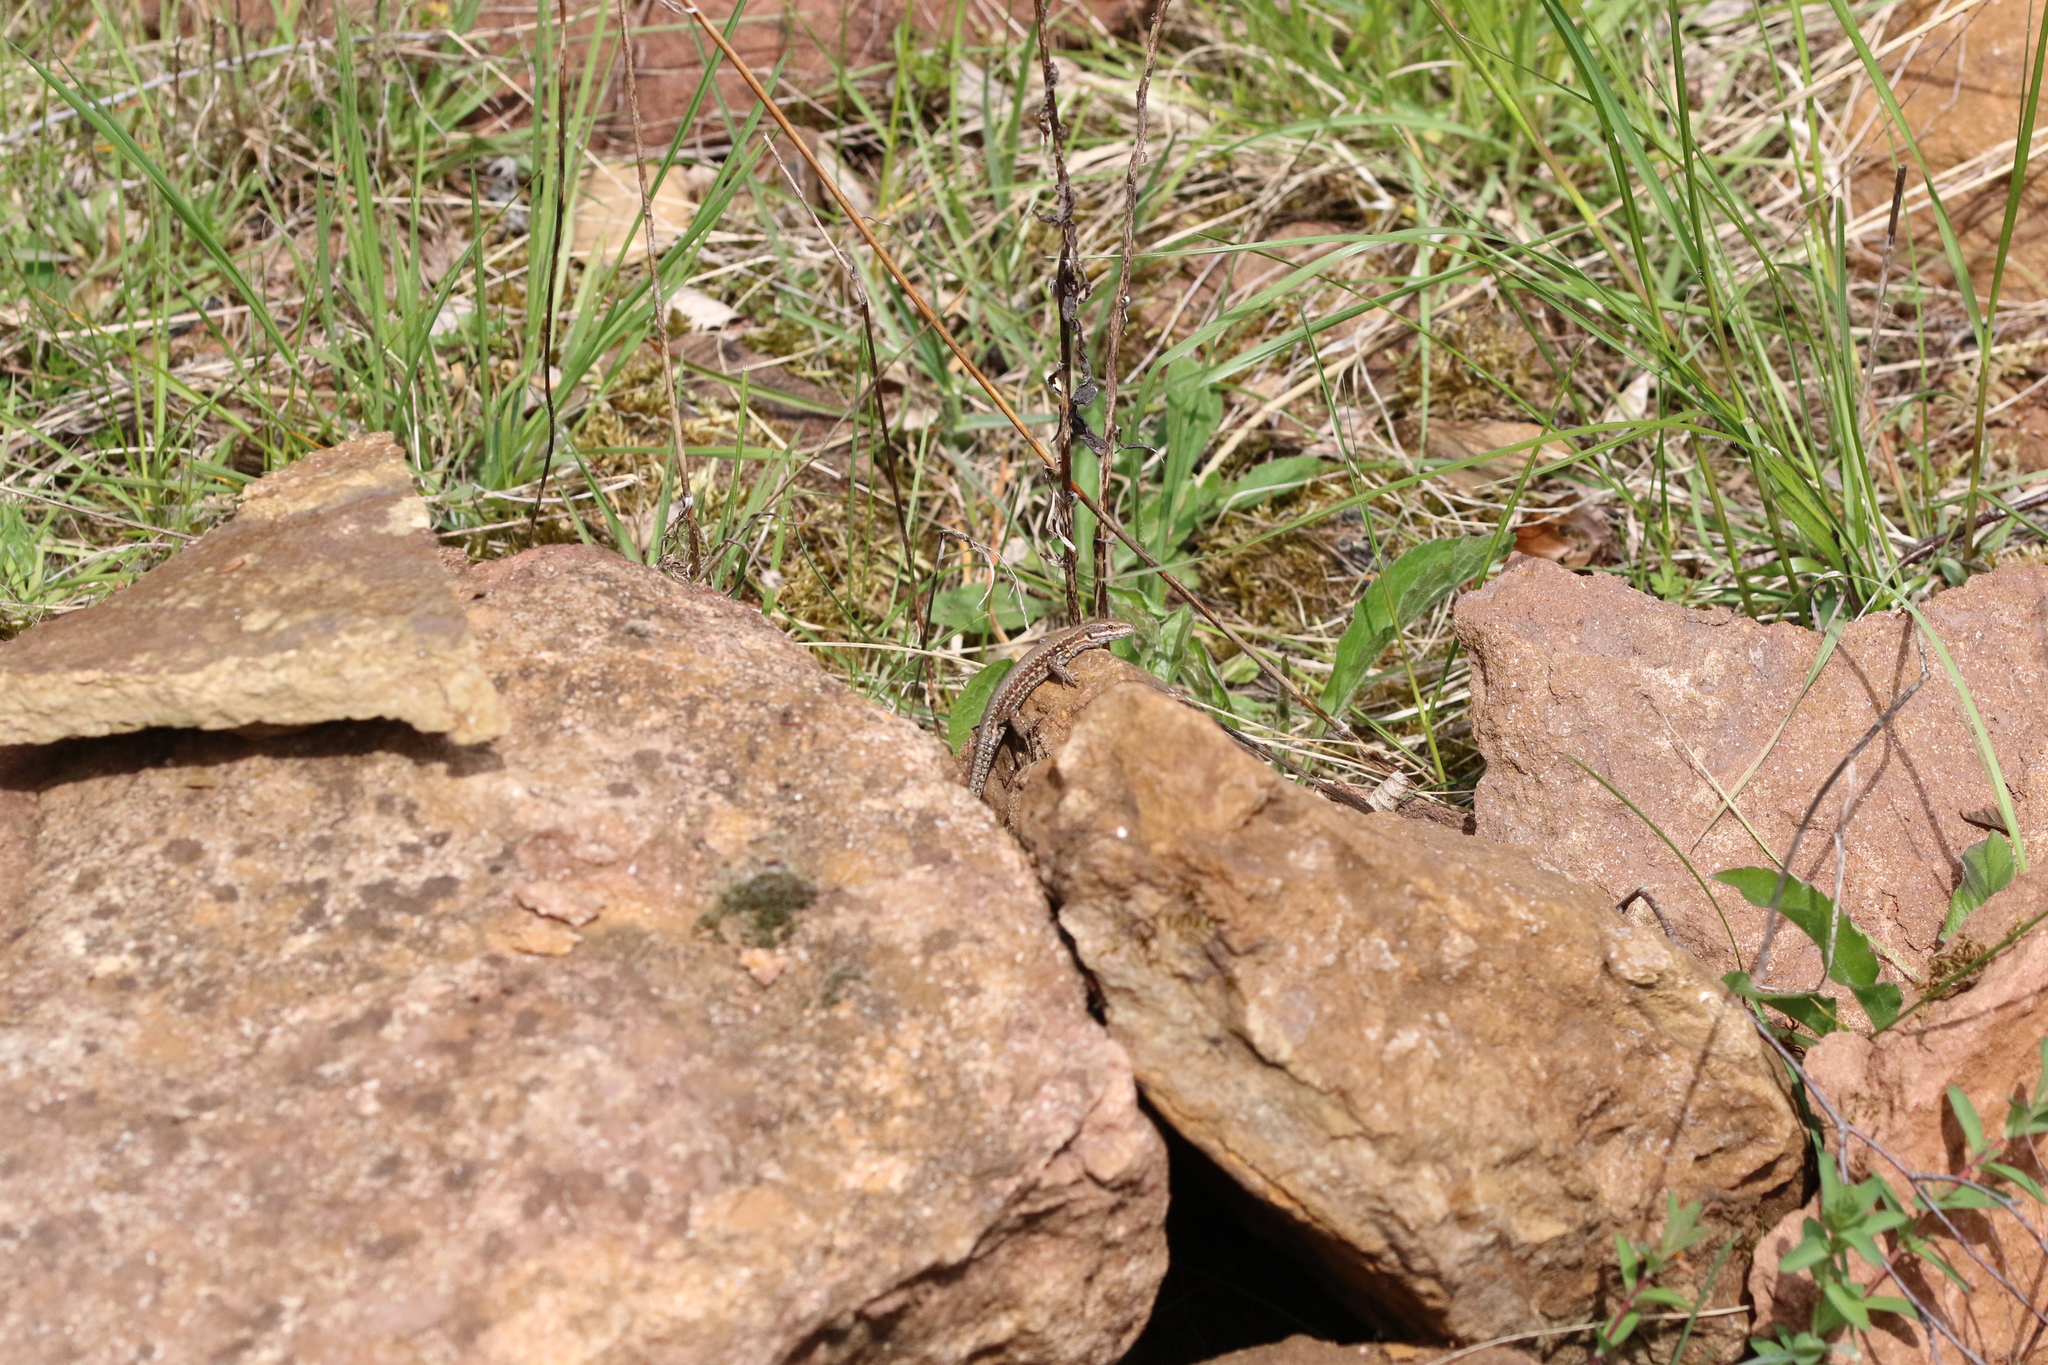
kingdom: Animalia
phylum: Chordata
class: Squamata
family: Lacertidae
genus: Podarcis
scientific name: Podarcis muralis
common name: Common wall lizard
